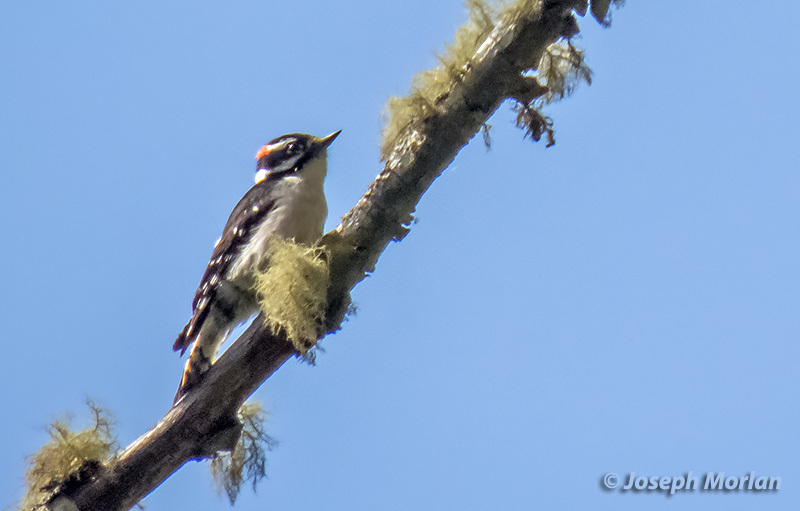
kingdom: Animalia
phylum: Chordata
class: Aves
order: Piciformes
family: Picidae
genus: Dryobates
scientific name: Dryobates pubescens
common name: Downy woodpecker
